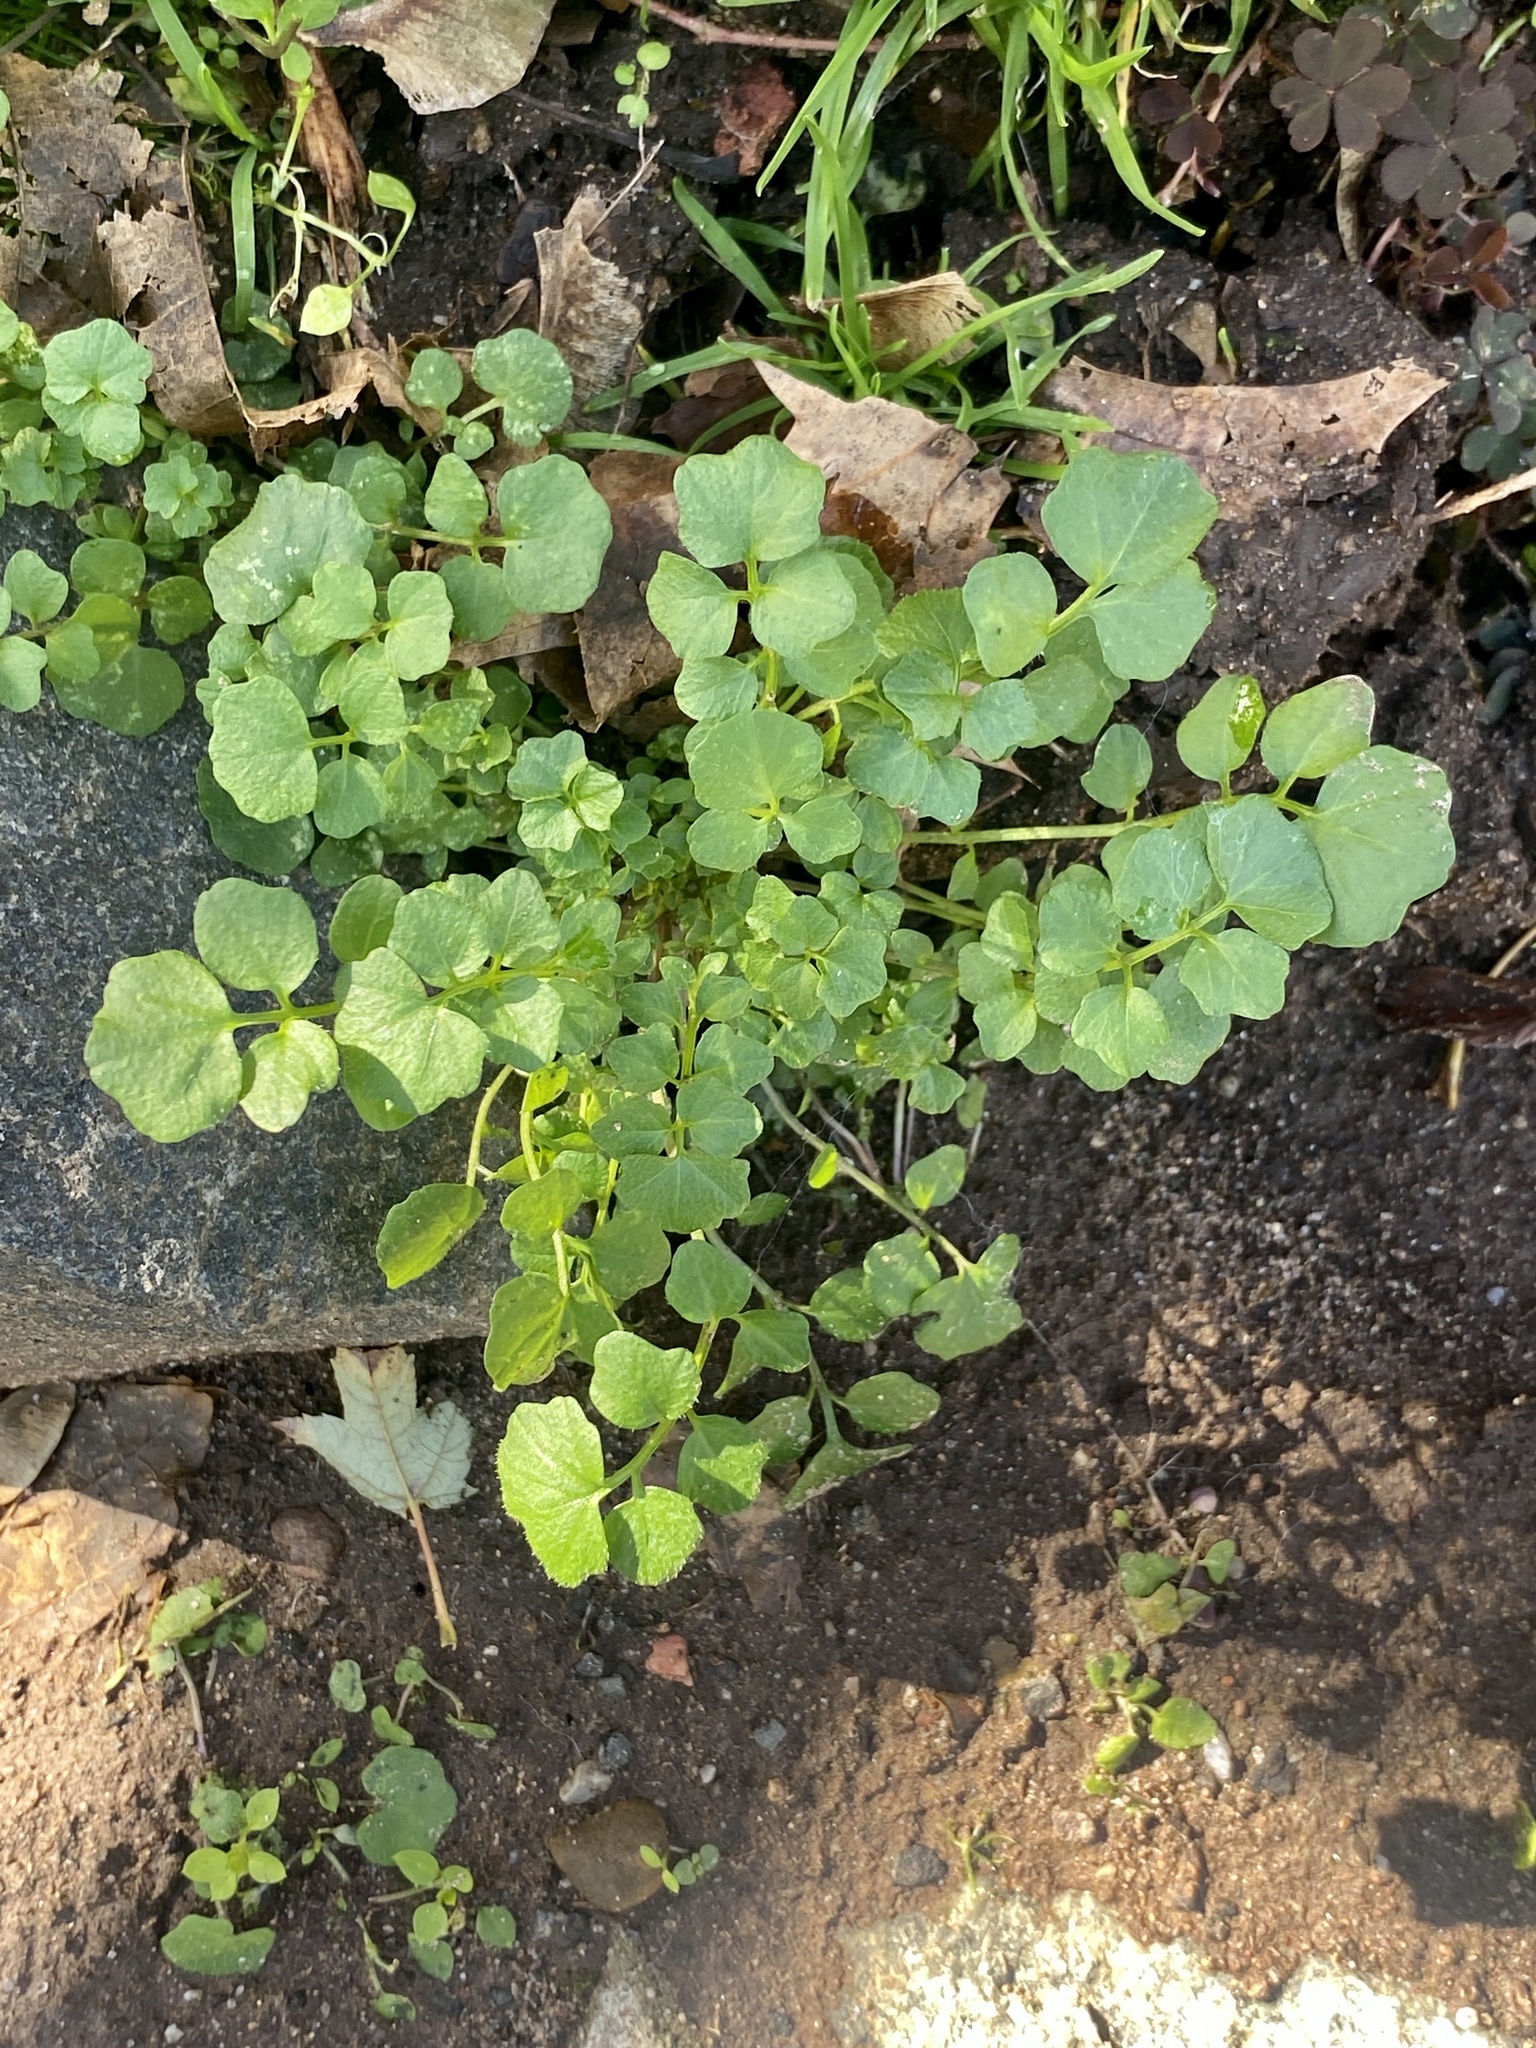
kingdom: Plantae
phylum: Tracheophyta
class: Magnoliopsida
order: Brassicales
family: Brassicaceae
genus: Cardamine
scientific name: Cardamine hirsuta
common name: Hairy bittercress
